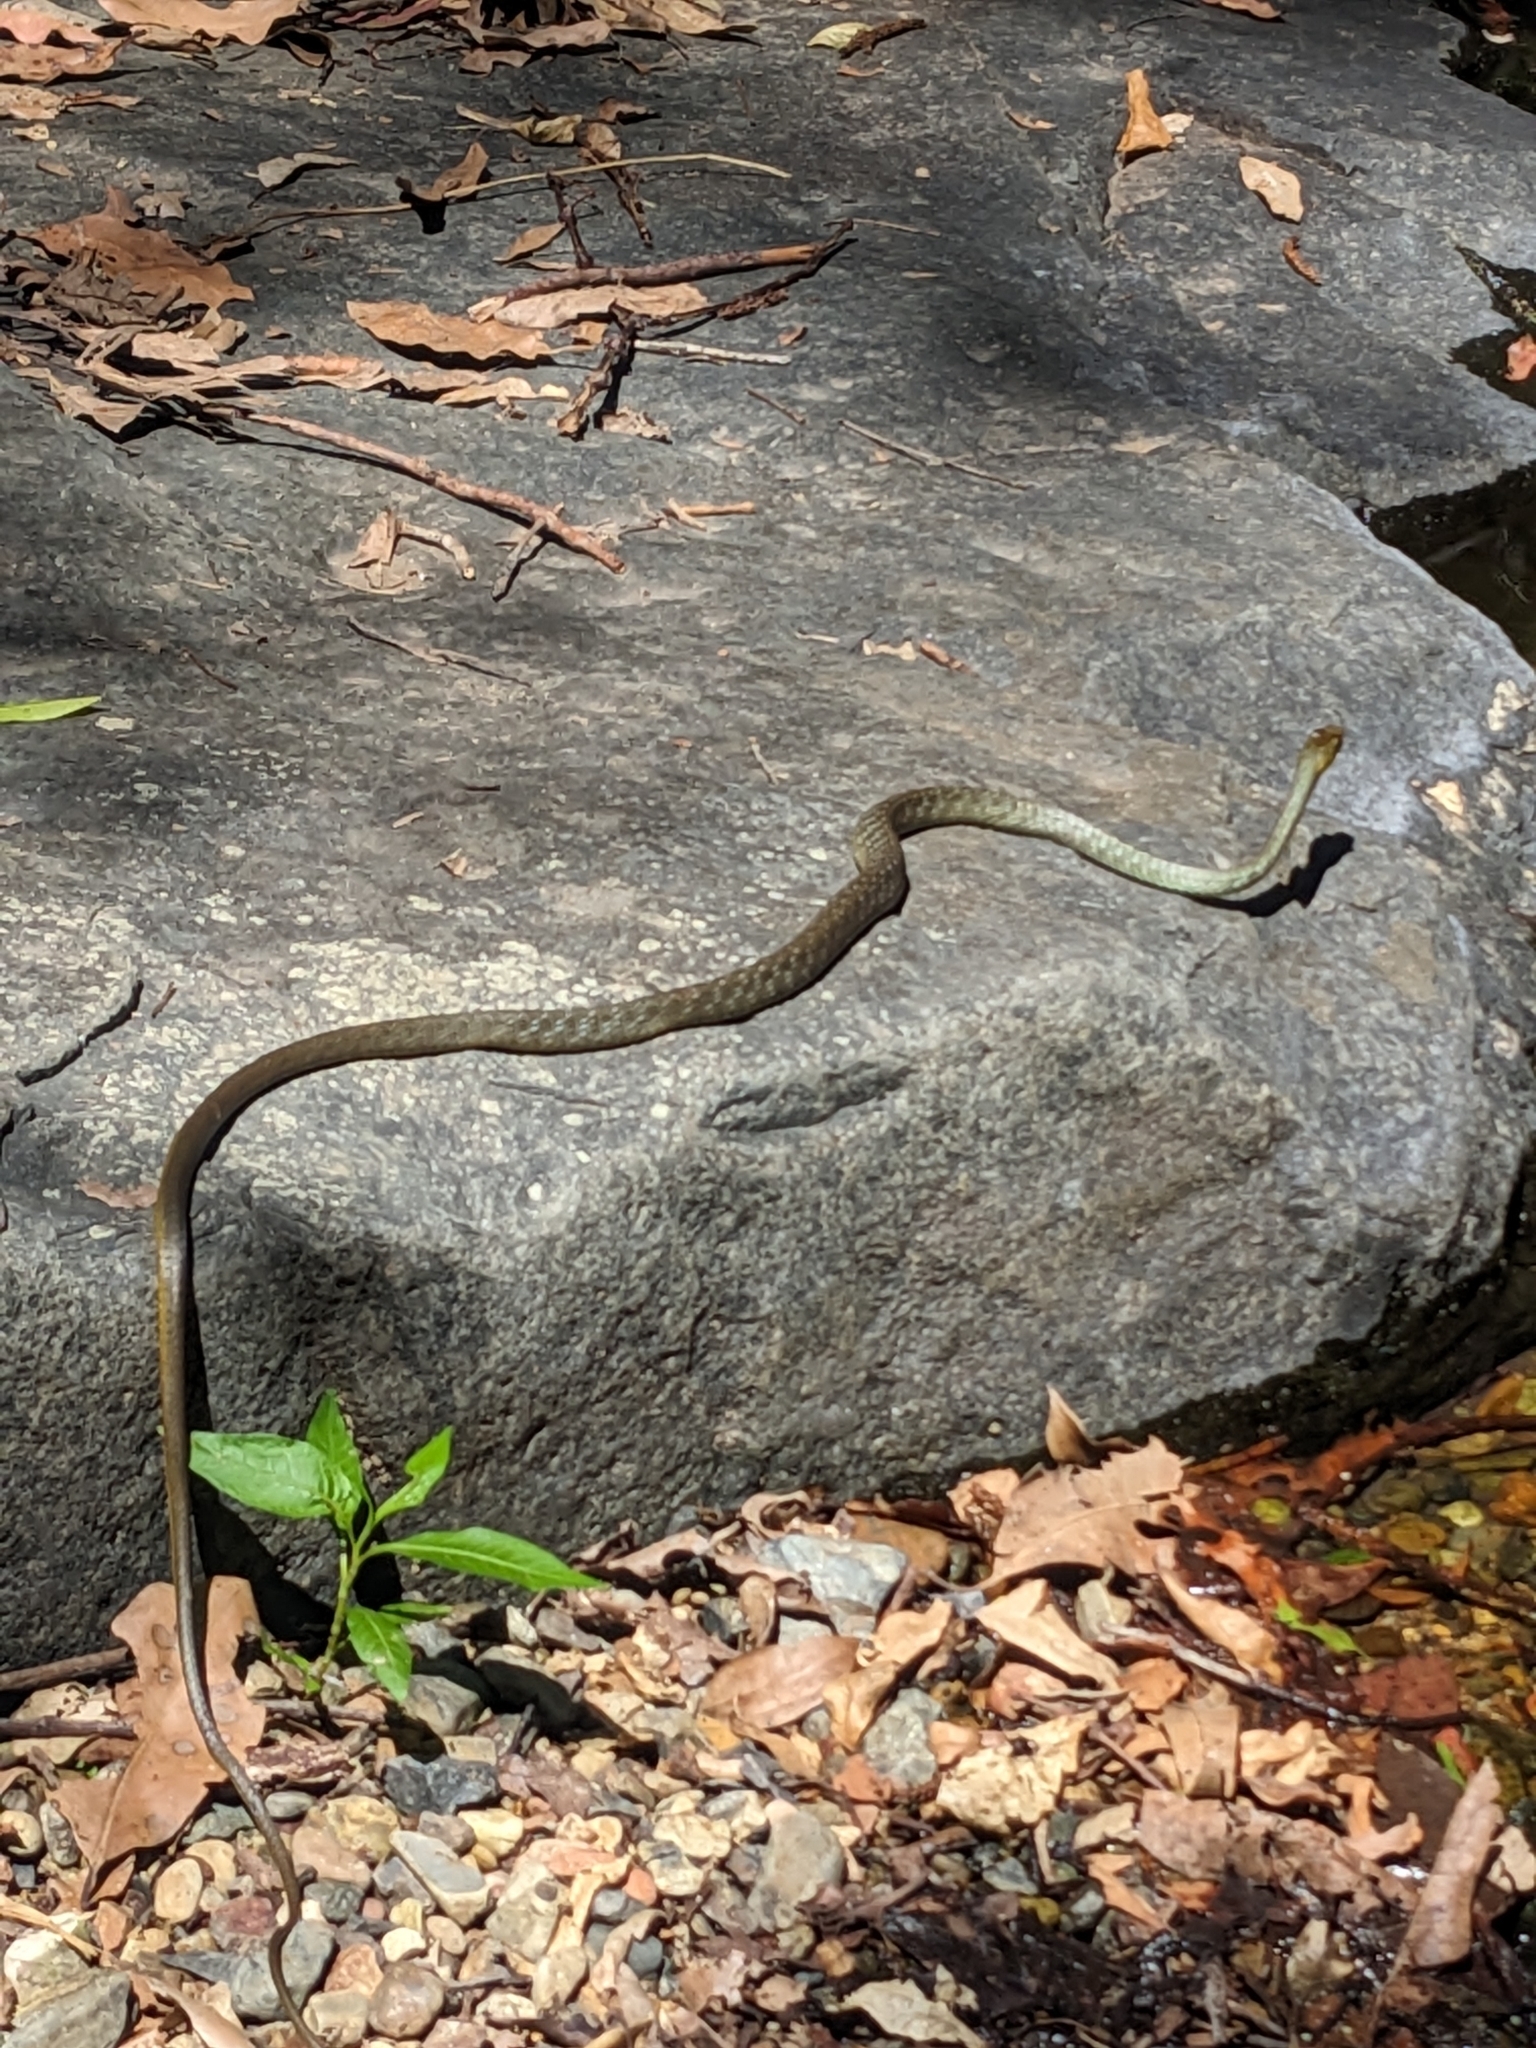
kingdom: Animalia
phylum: Chordata
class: Squamata
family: Colubridae
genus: Dendrelaphis
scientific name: Dendrelaphis punctulatus
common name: Common tree snake
